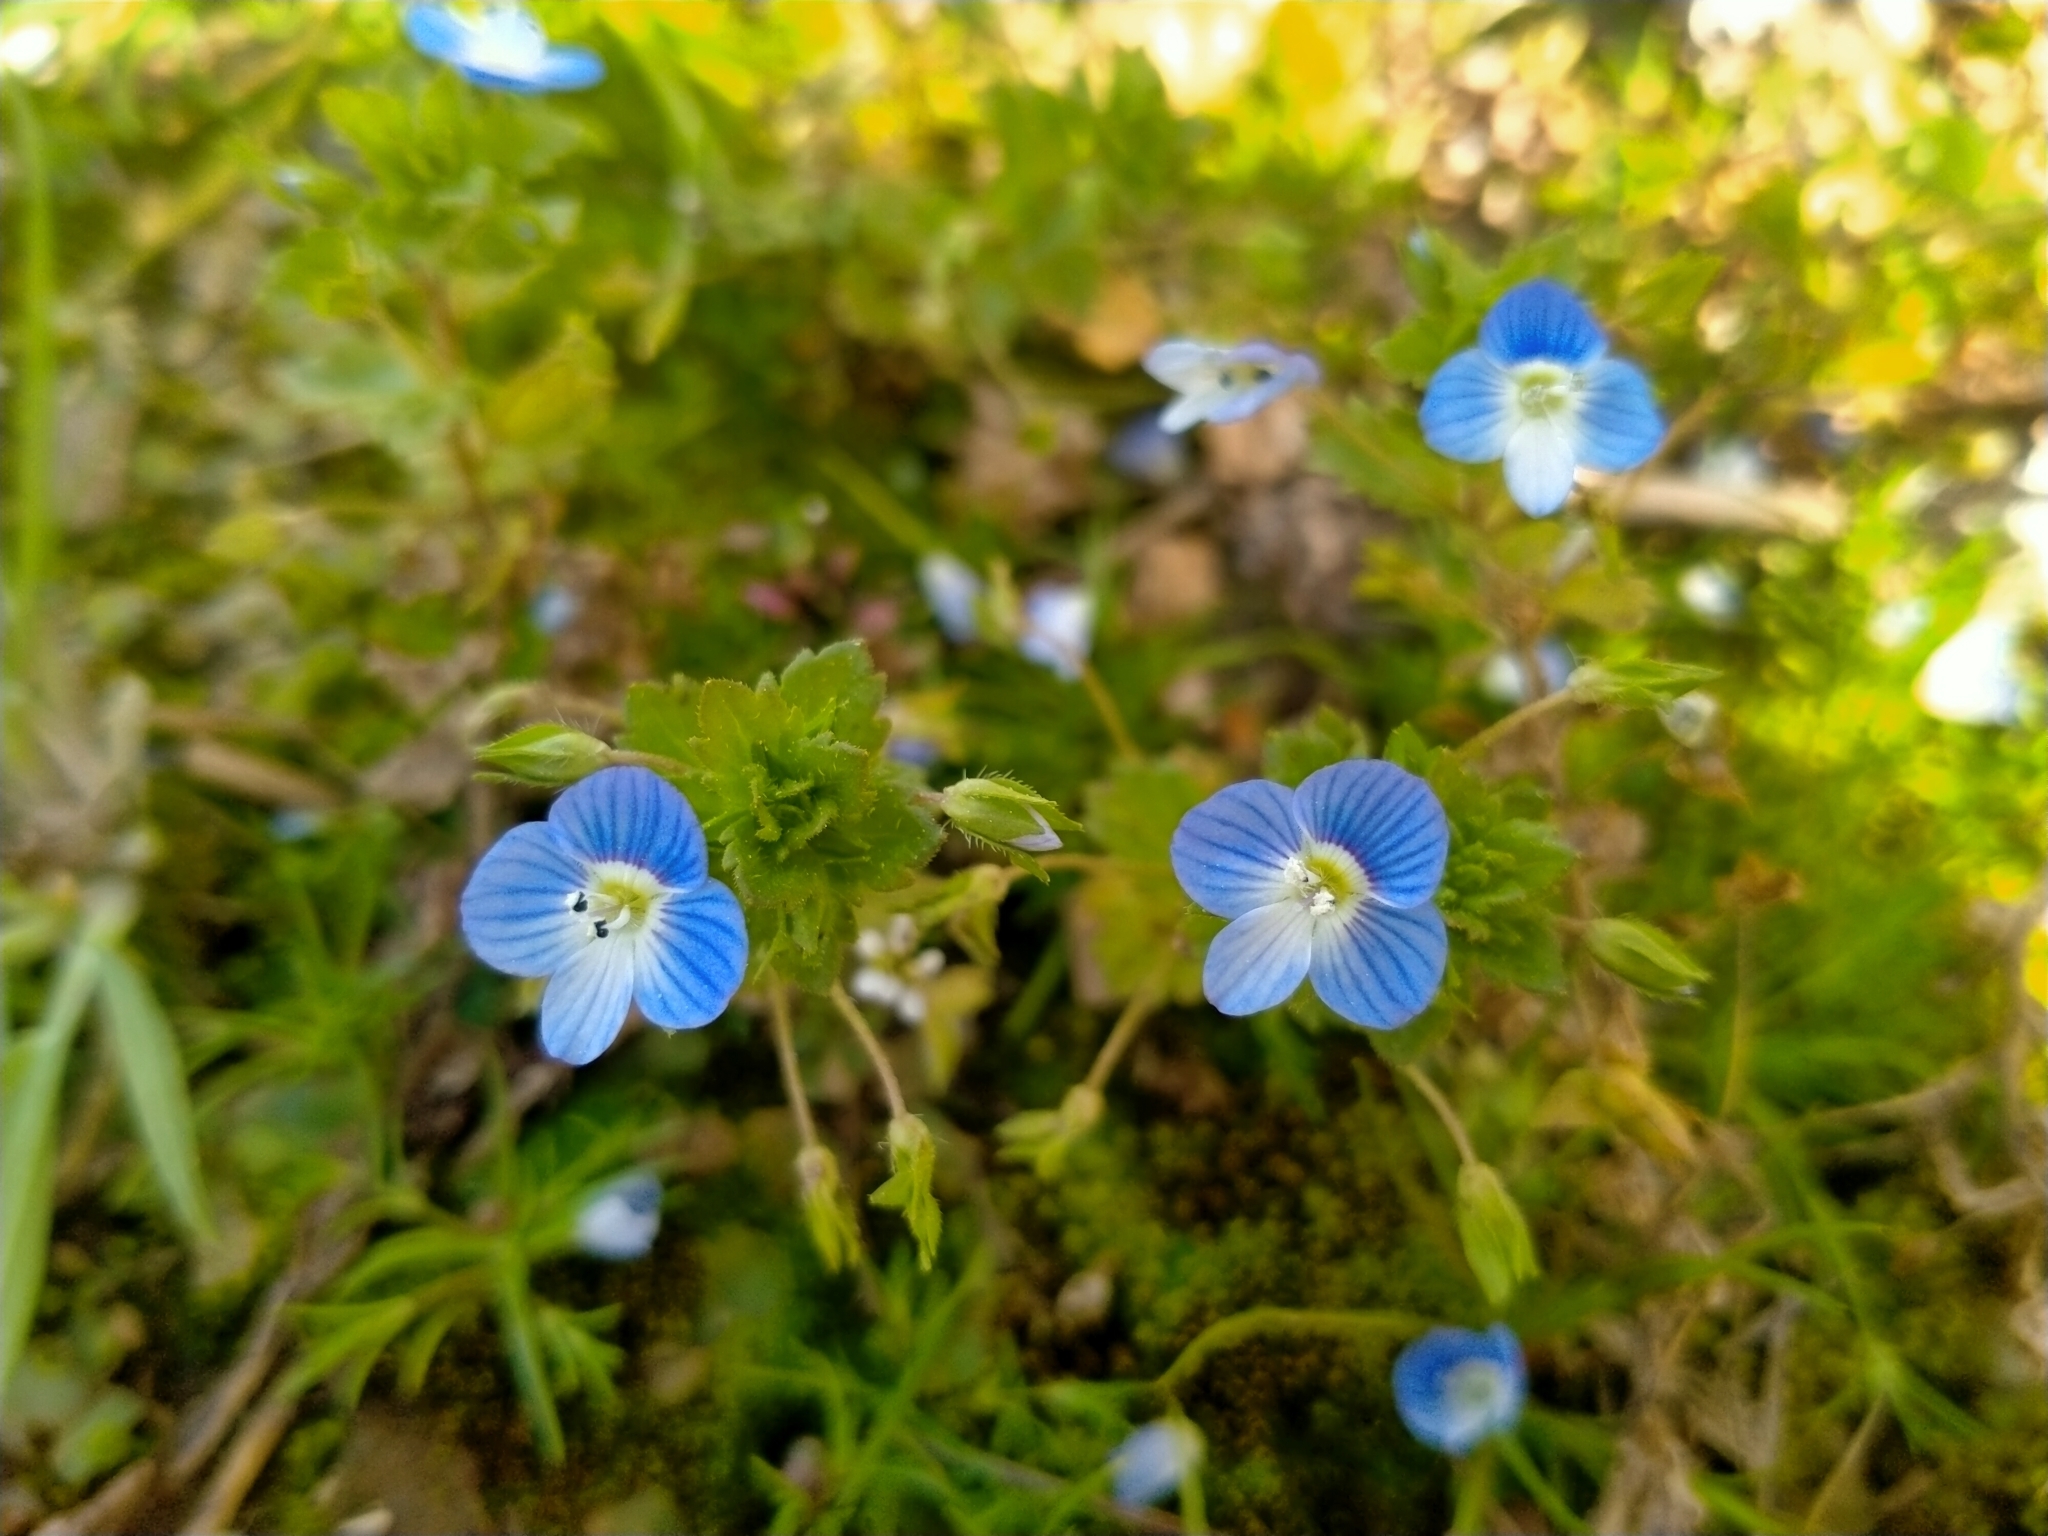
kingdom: Plantae
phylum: Tracheophyta
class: Magnoliopsida
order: Lamiales
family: Plantaginaceae
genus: Veronica
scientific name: Veronica persica
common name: Common field-speedwell
